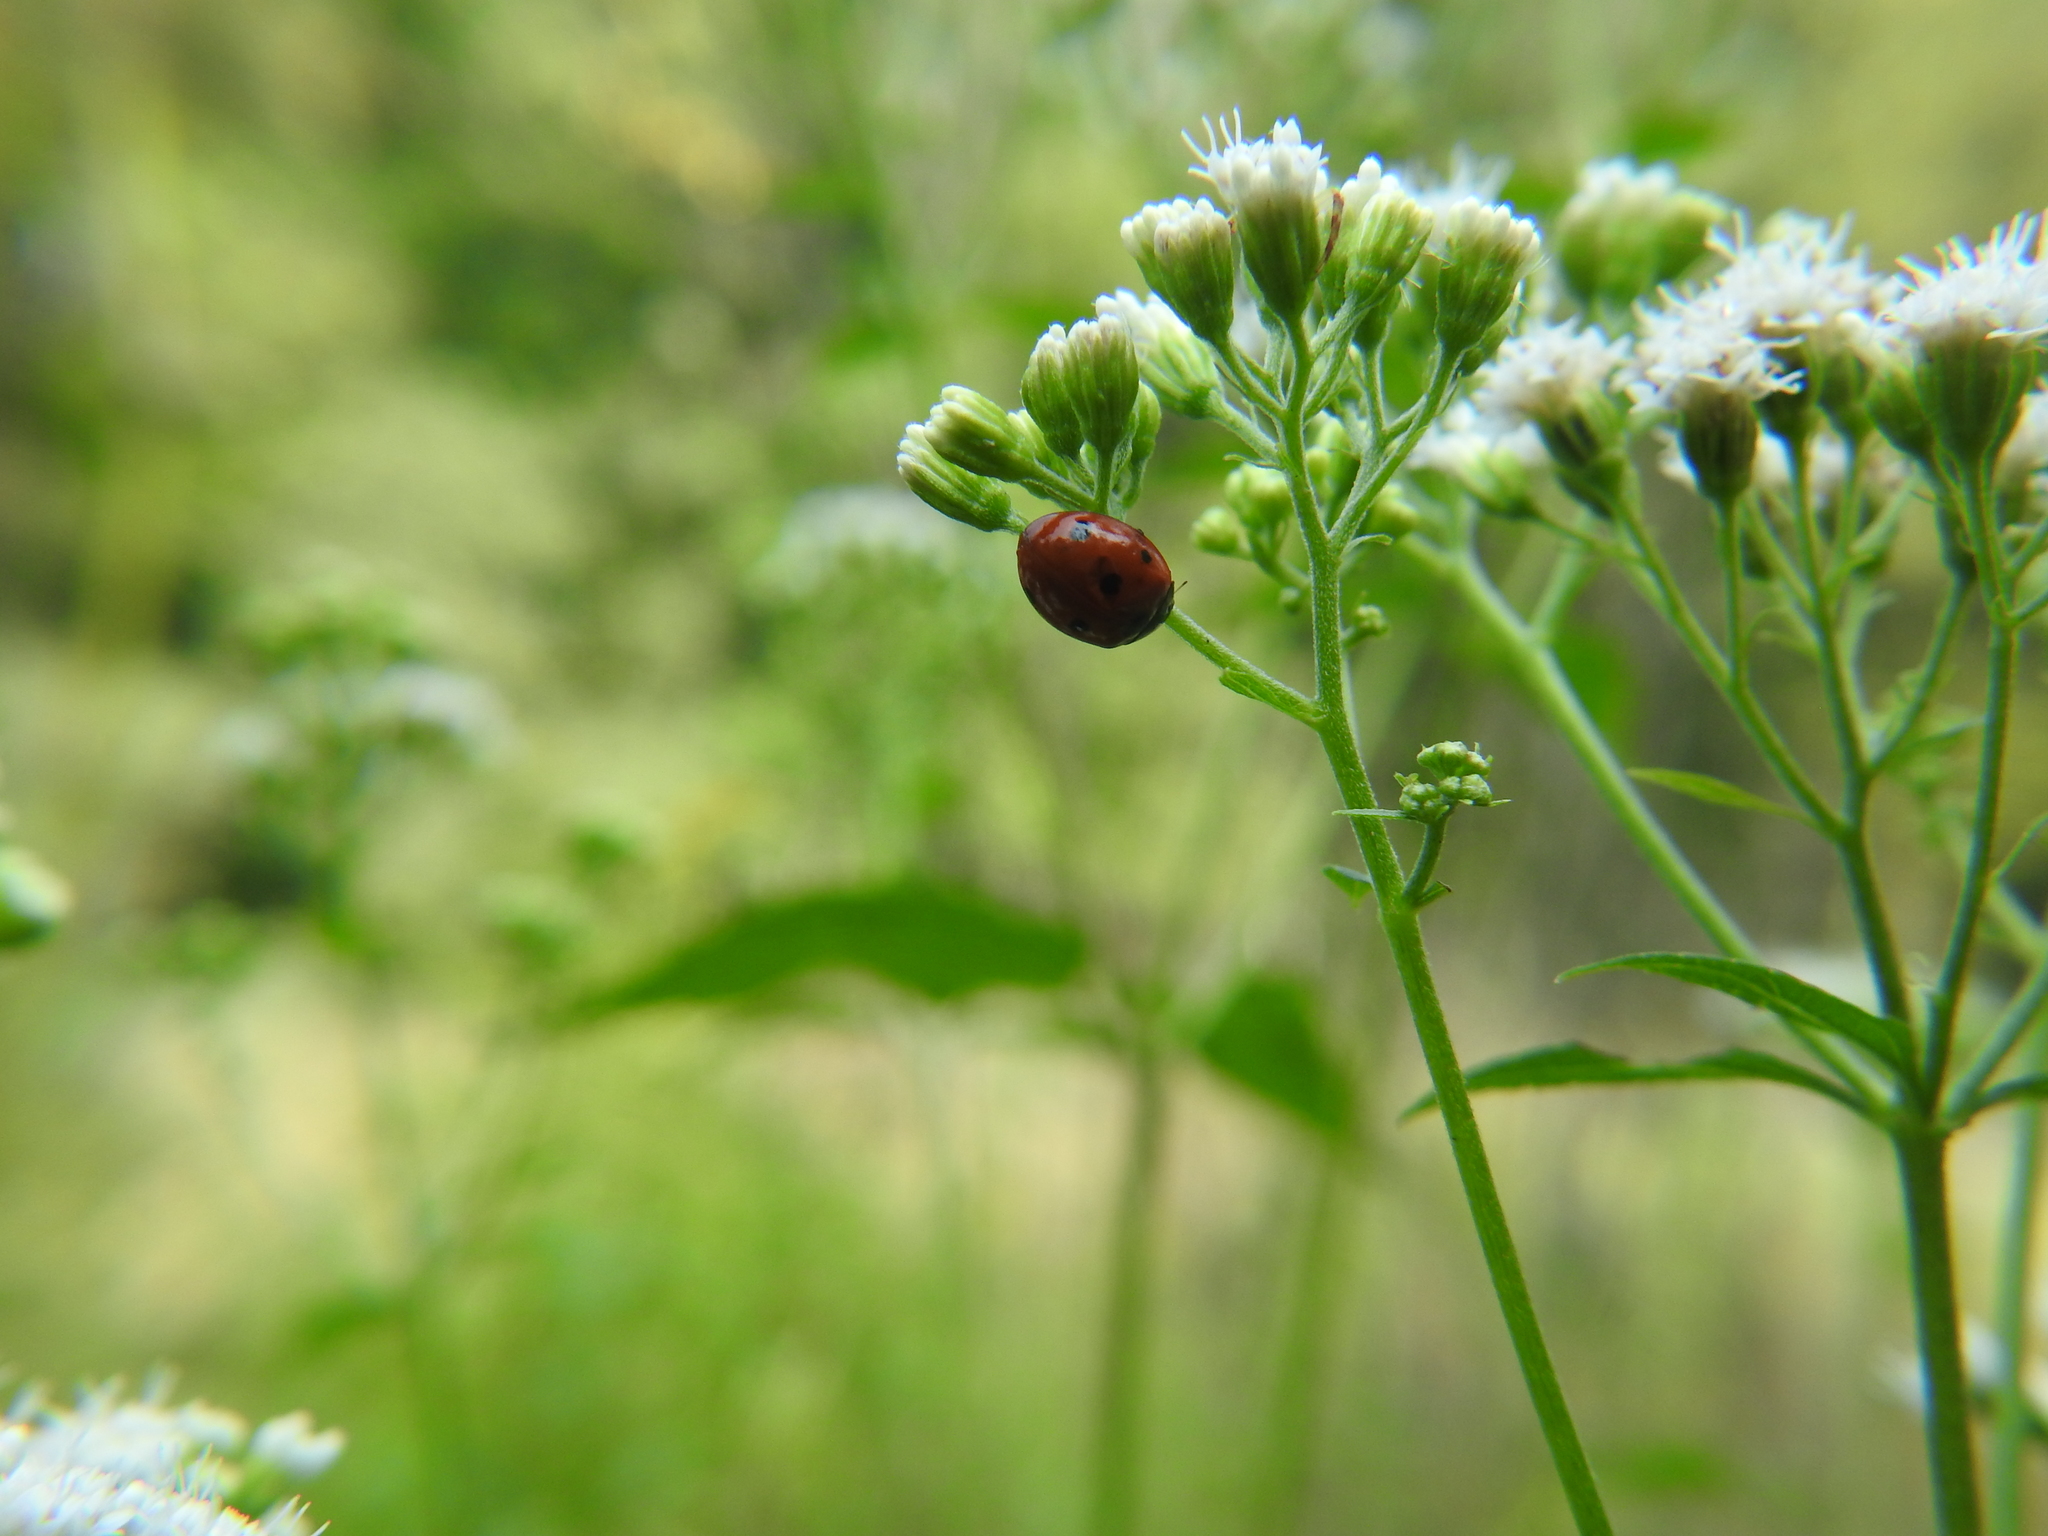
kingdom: Animalia
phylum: Arthropoda
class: Insecta
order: Coleoptera
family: Coccinellidae
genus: Coccinella
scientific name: Coccinella septempunctata
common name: Sevenspotted lady beetle
